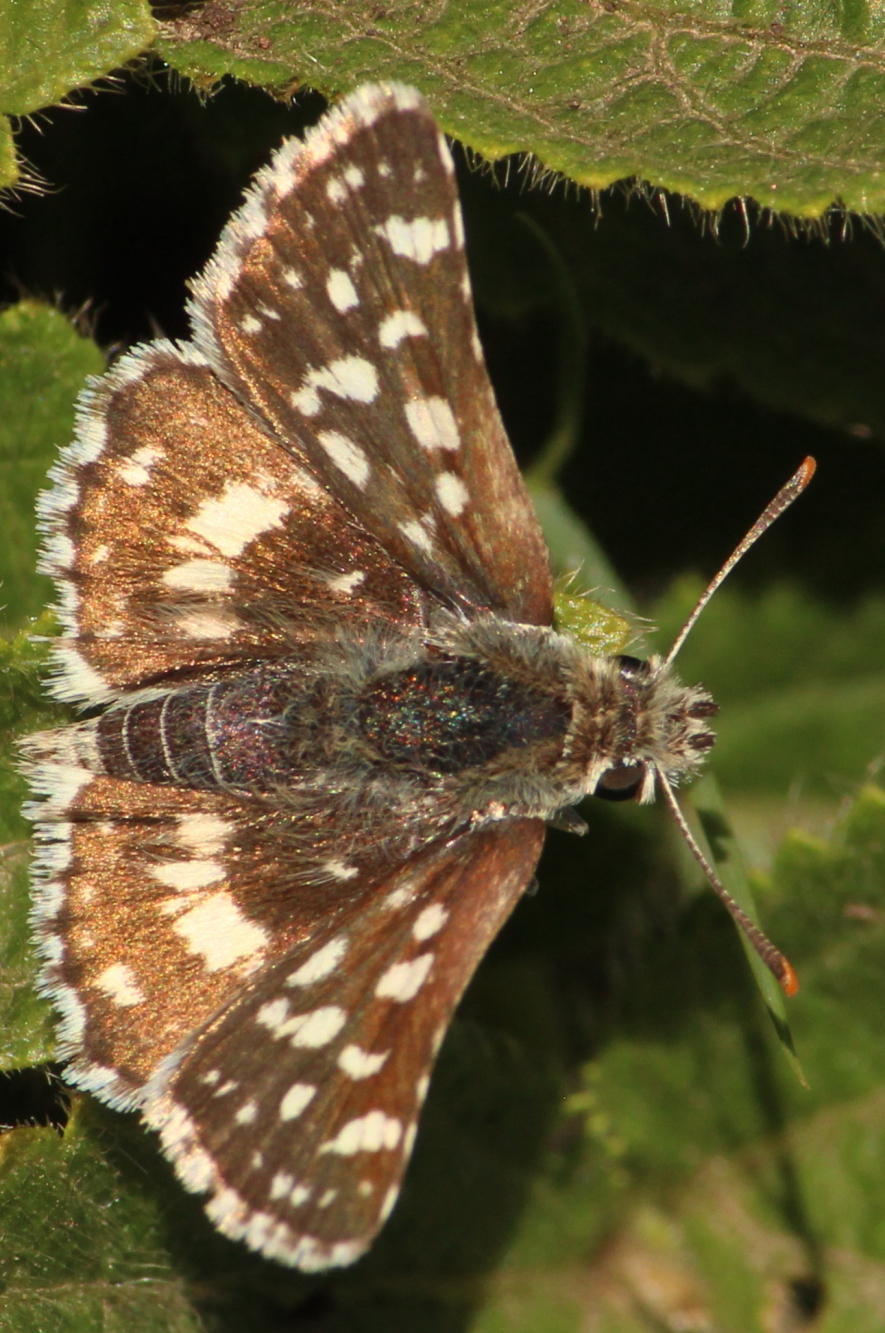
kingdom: Animalia
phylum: Arthropoda
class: Insecta
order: Lepidoptera
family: Hesperiidae
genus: Spialia
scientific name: Spialia diomus
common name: Common sandman
